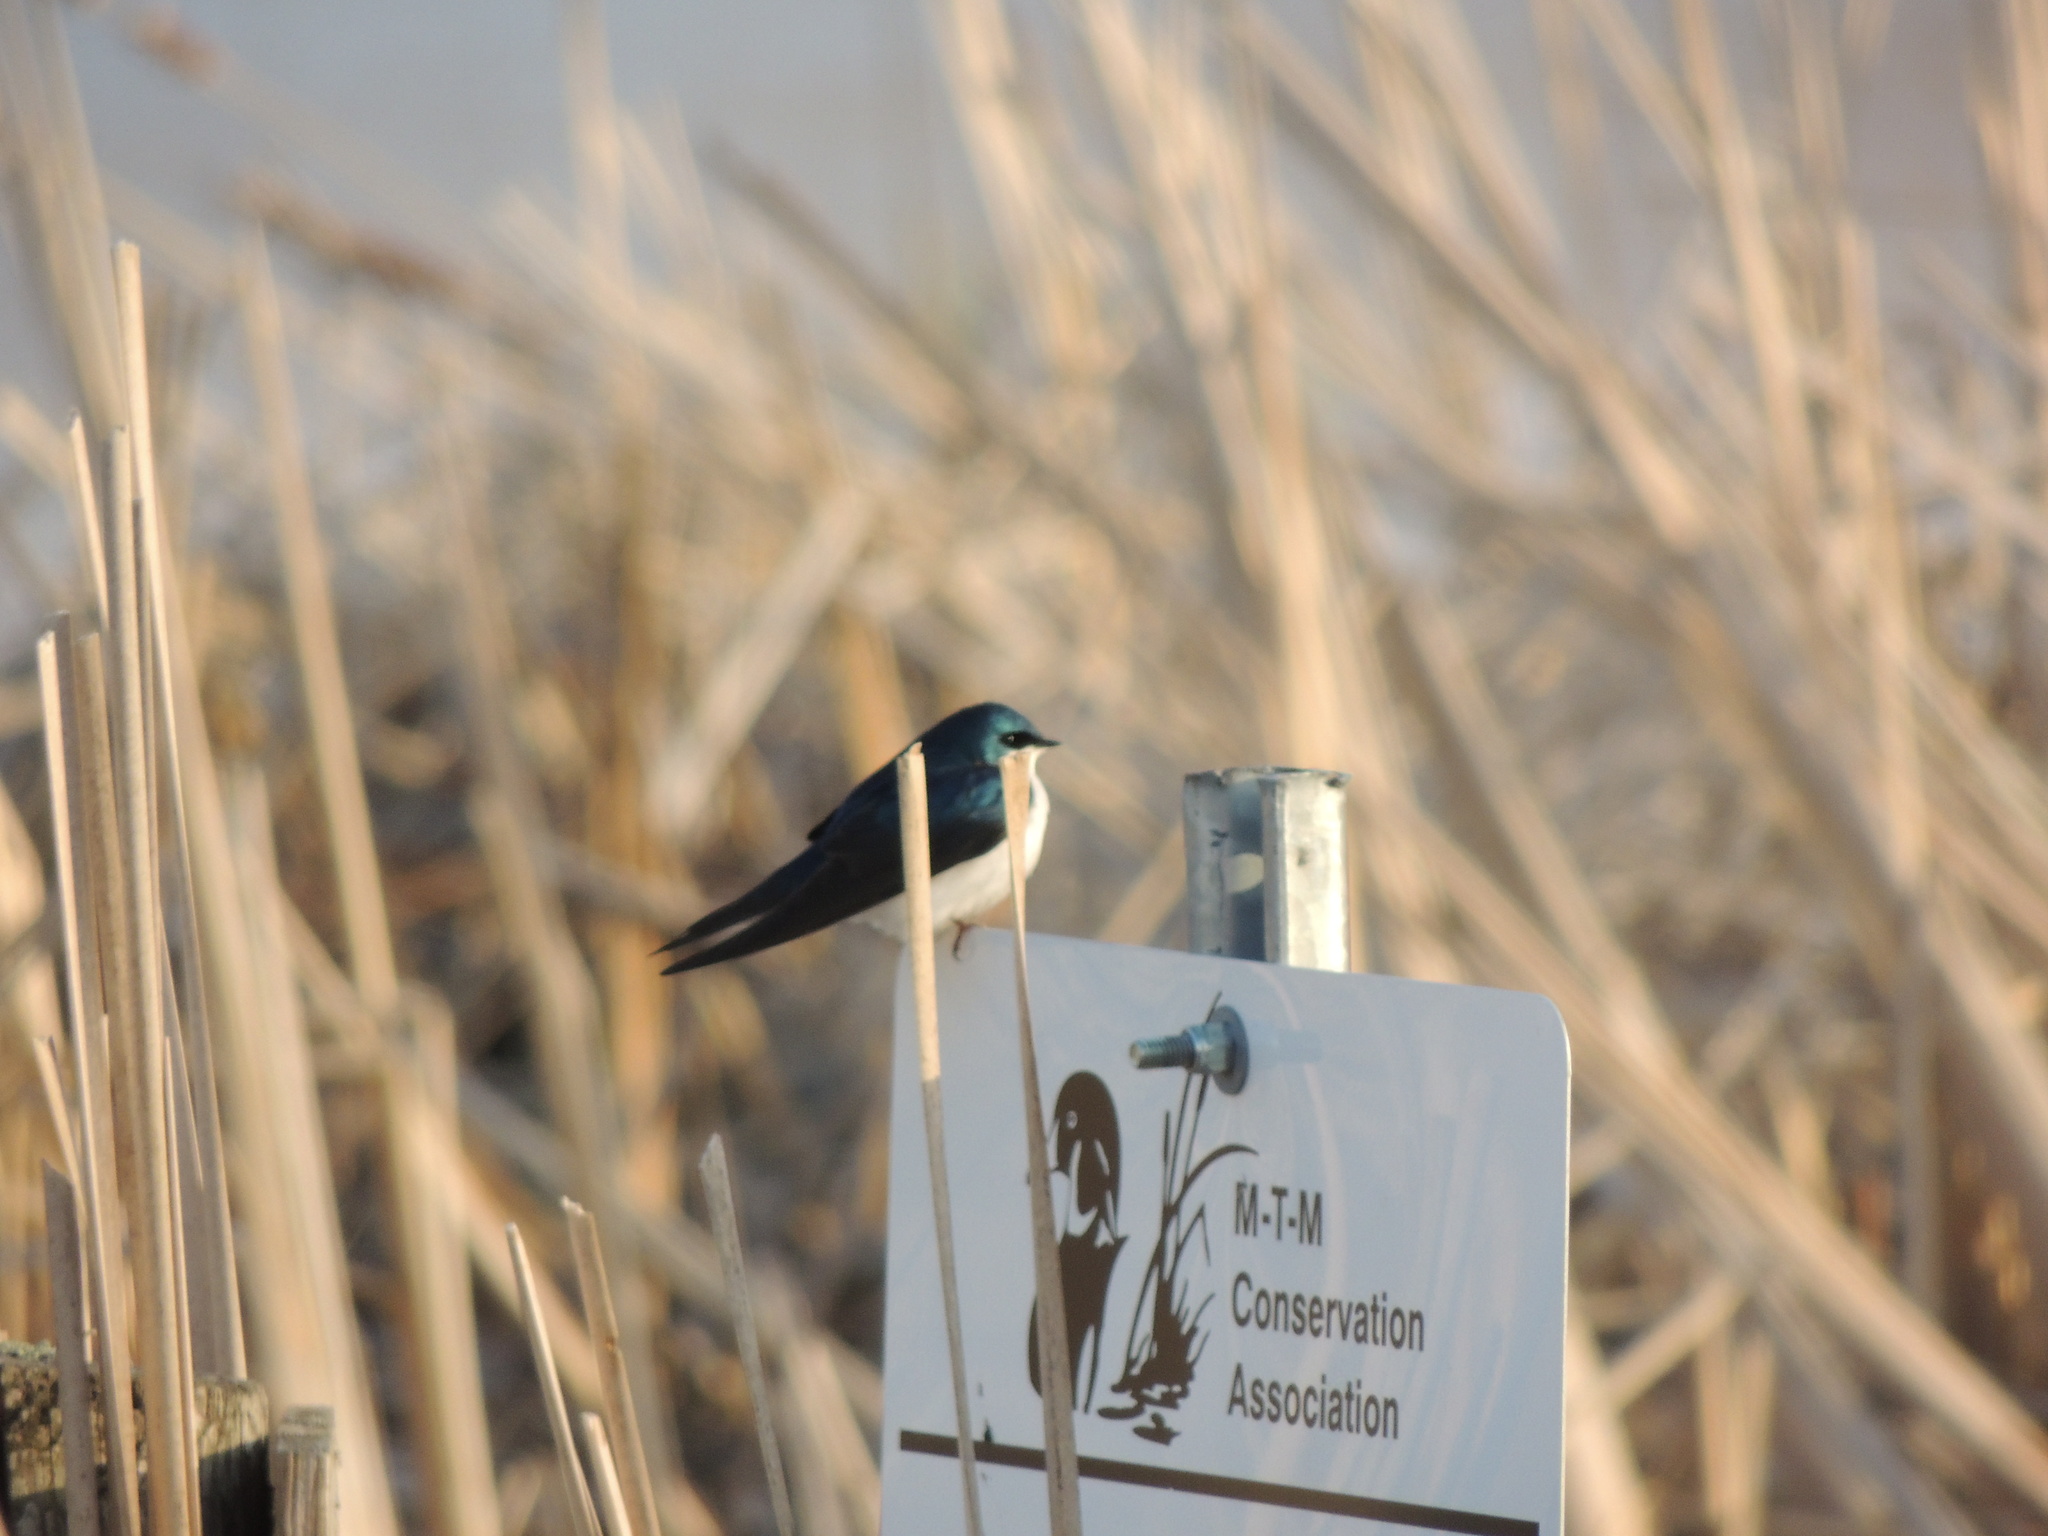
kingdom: Animalia
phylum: Chordata
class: Aves
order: Passeriformes
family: Hirundinidae
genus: Tachycineta
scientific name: Tachycineta bicolor
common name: Tree swallow
